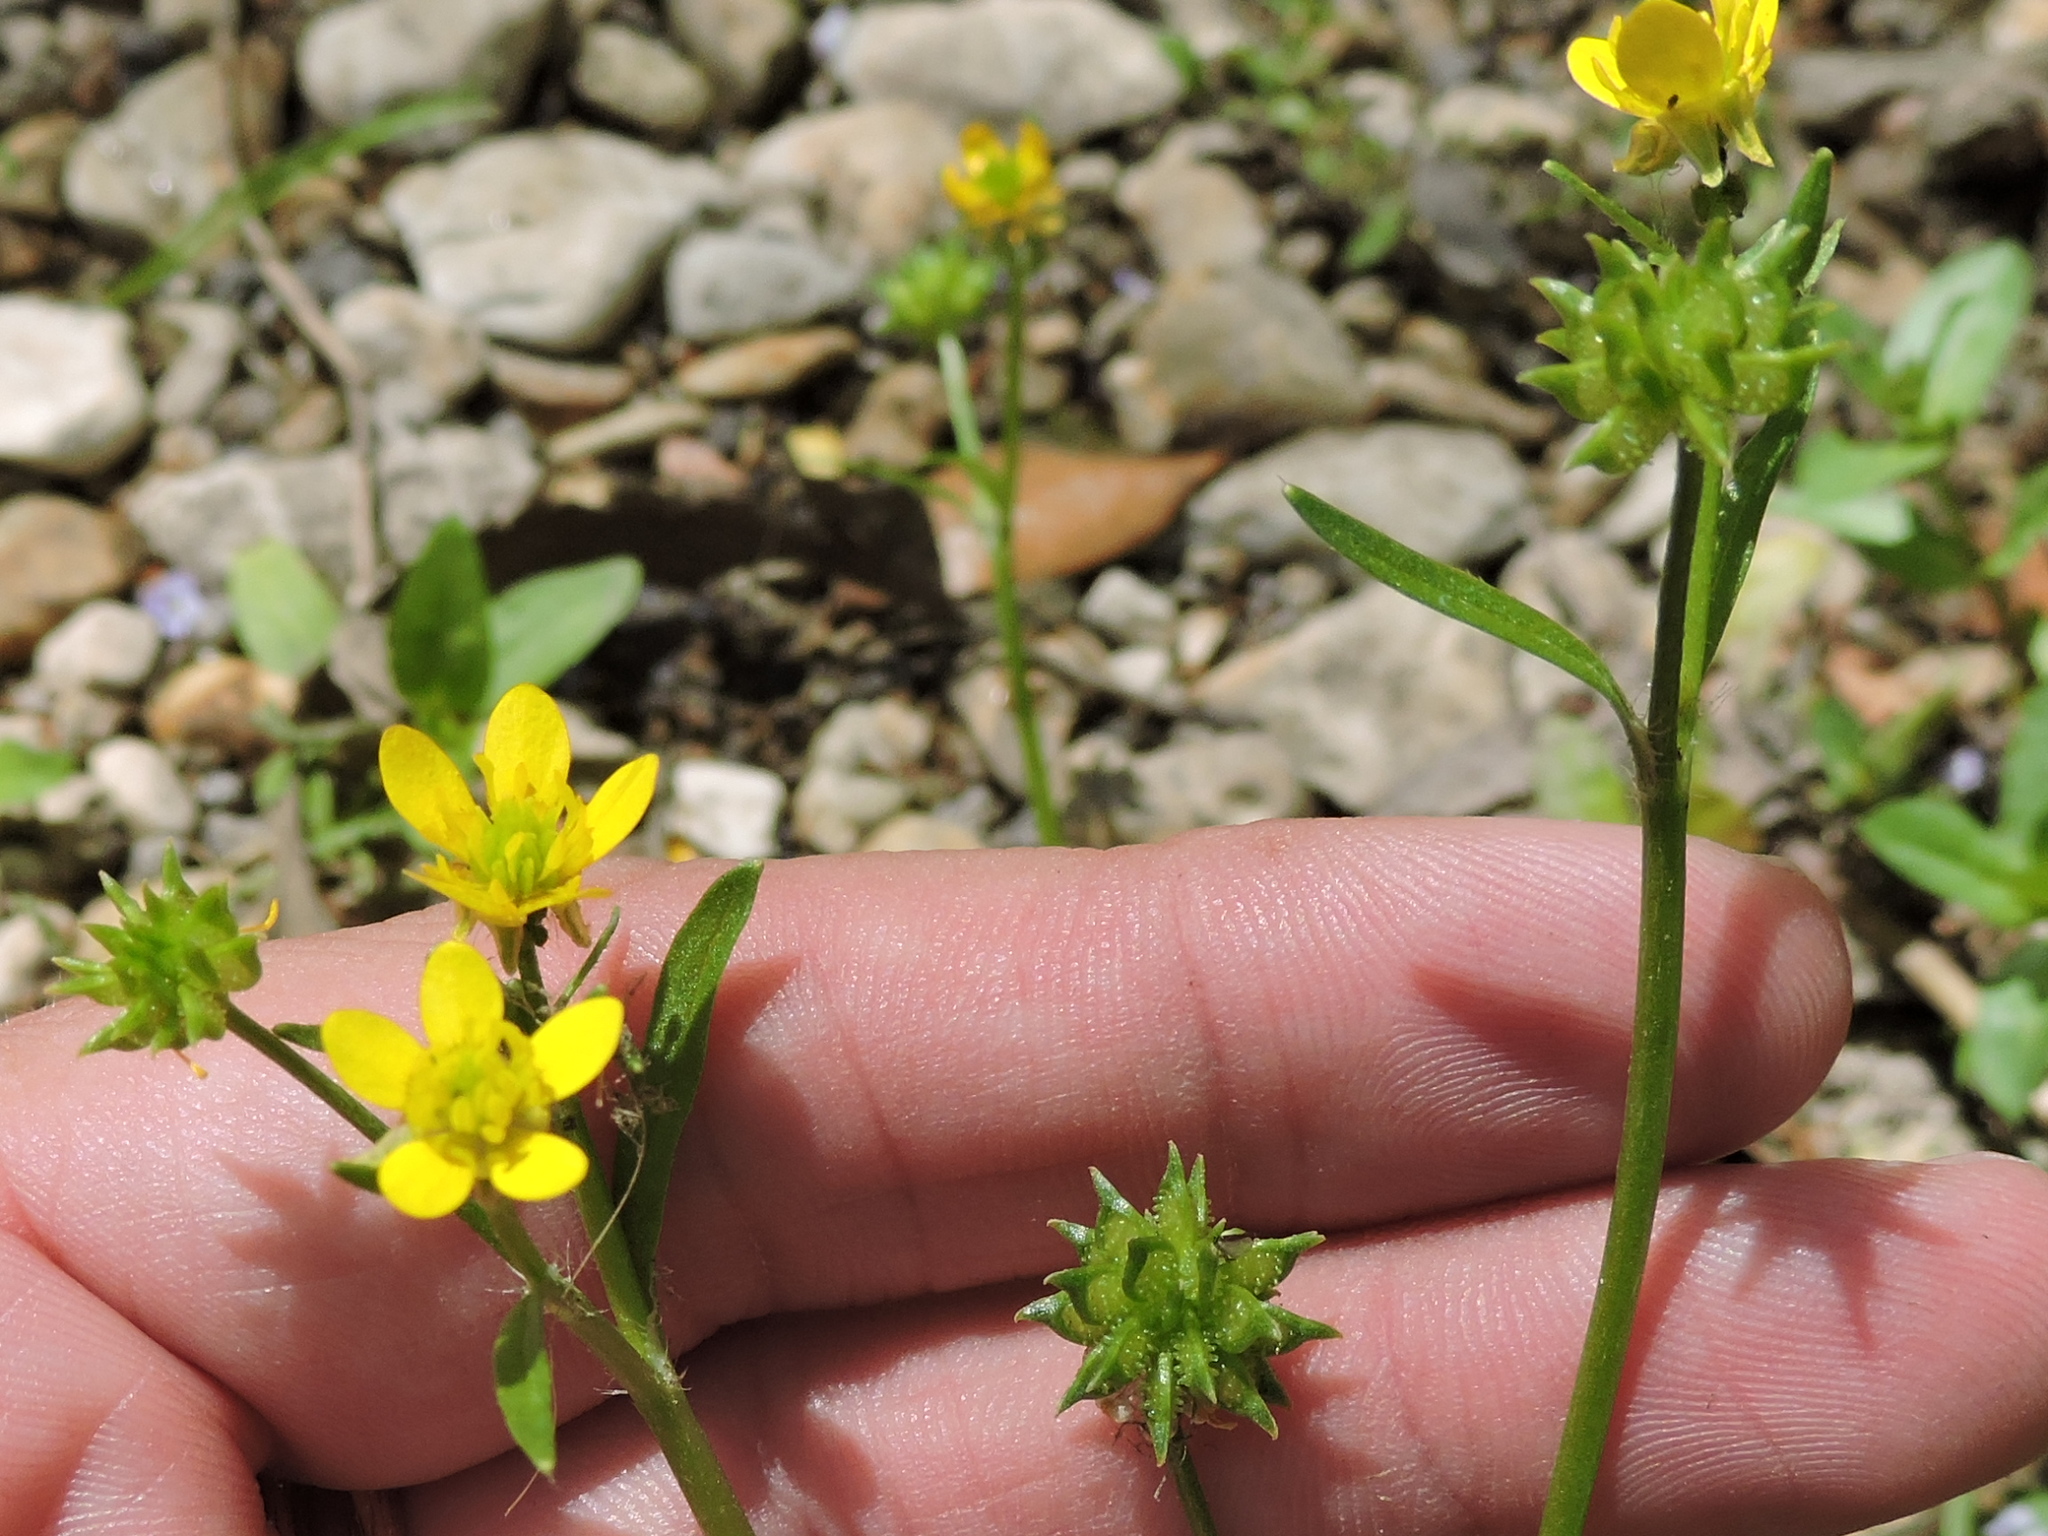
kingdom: Plantae
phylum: Tracheophyta
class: Magnoliopsida
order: Ranunculales
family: Ranunculaceae
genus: Ranunculus
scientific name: Ranunculus muricatus
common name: Rough-fruited buttercup
